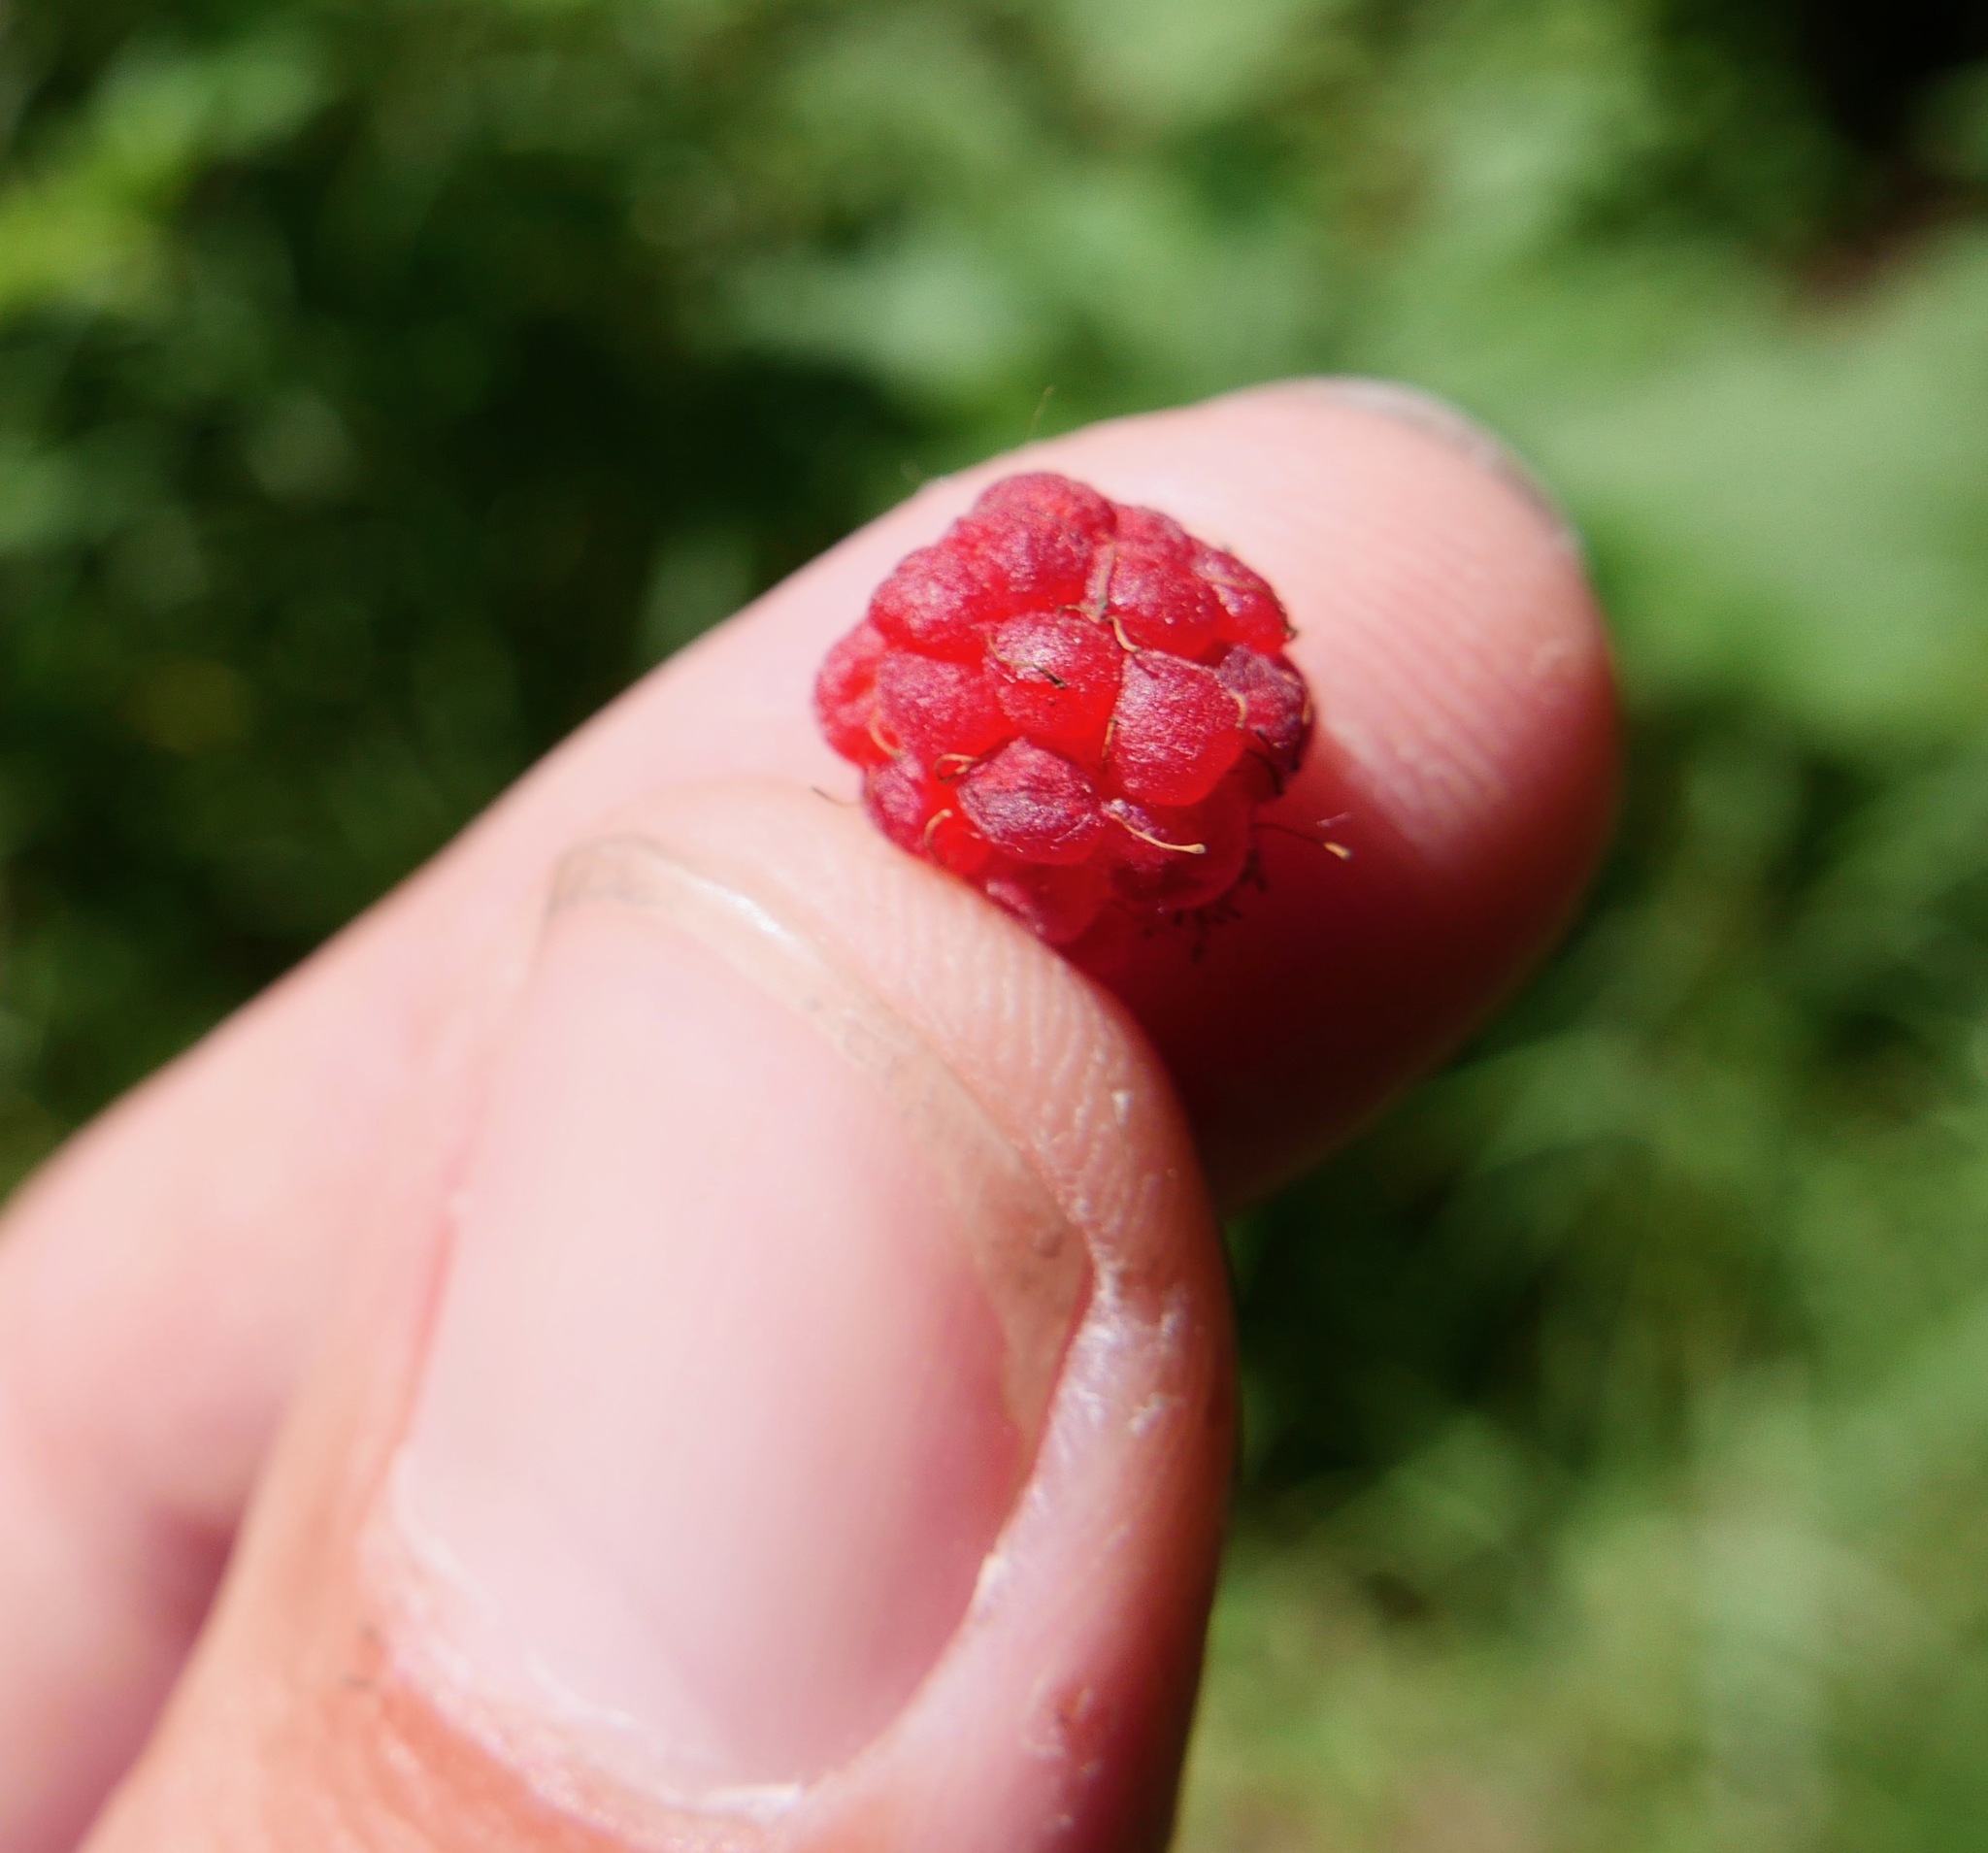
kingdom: Plantae
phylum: Tracheophyta
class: Magnoliopsida
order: Rosales
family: Rosaceae
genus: Rubus
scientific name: Rubus idaeus
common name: Raspberry
